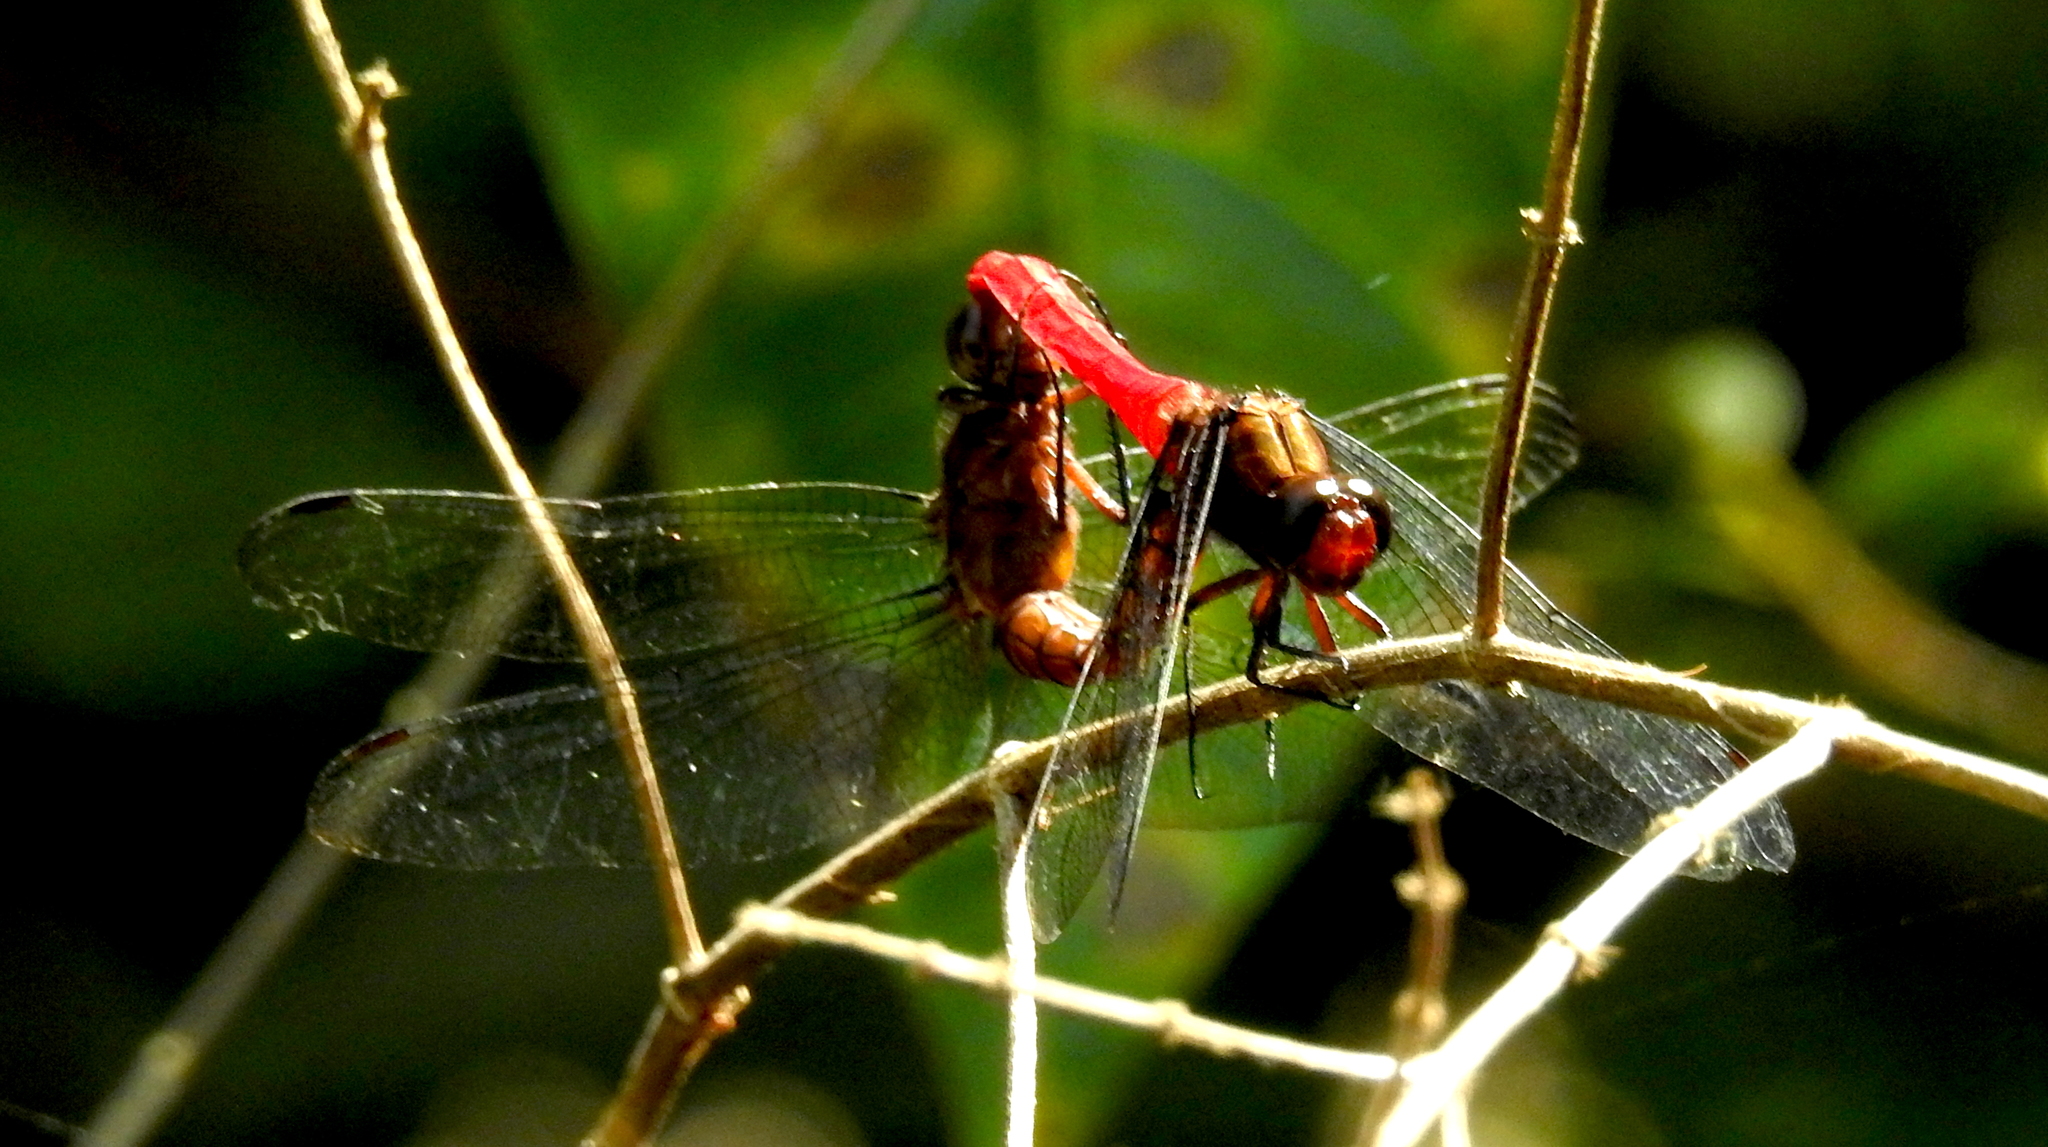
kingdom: Animalia
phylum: Arthropoda
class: Insecta
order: Odonata
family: Libellulidae
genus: Orthetrum
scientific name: Orthetrum chrysis
